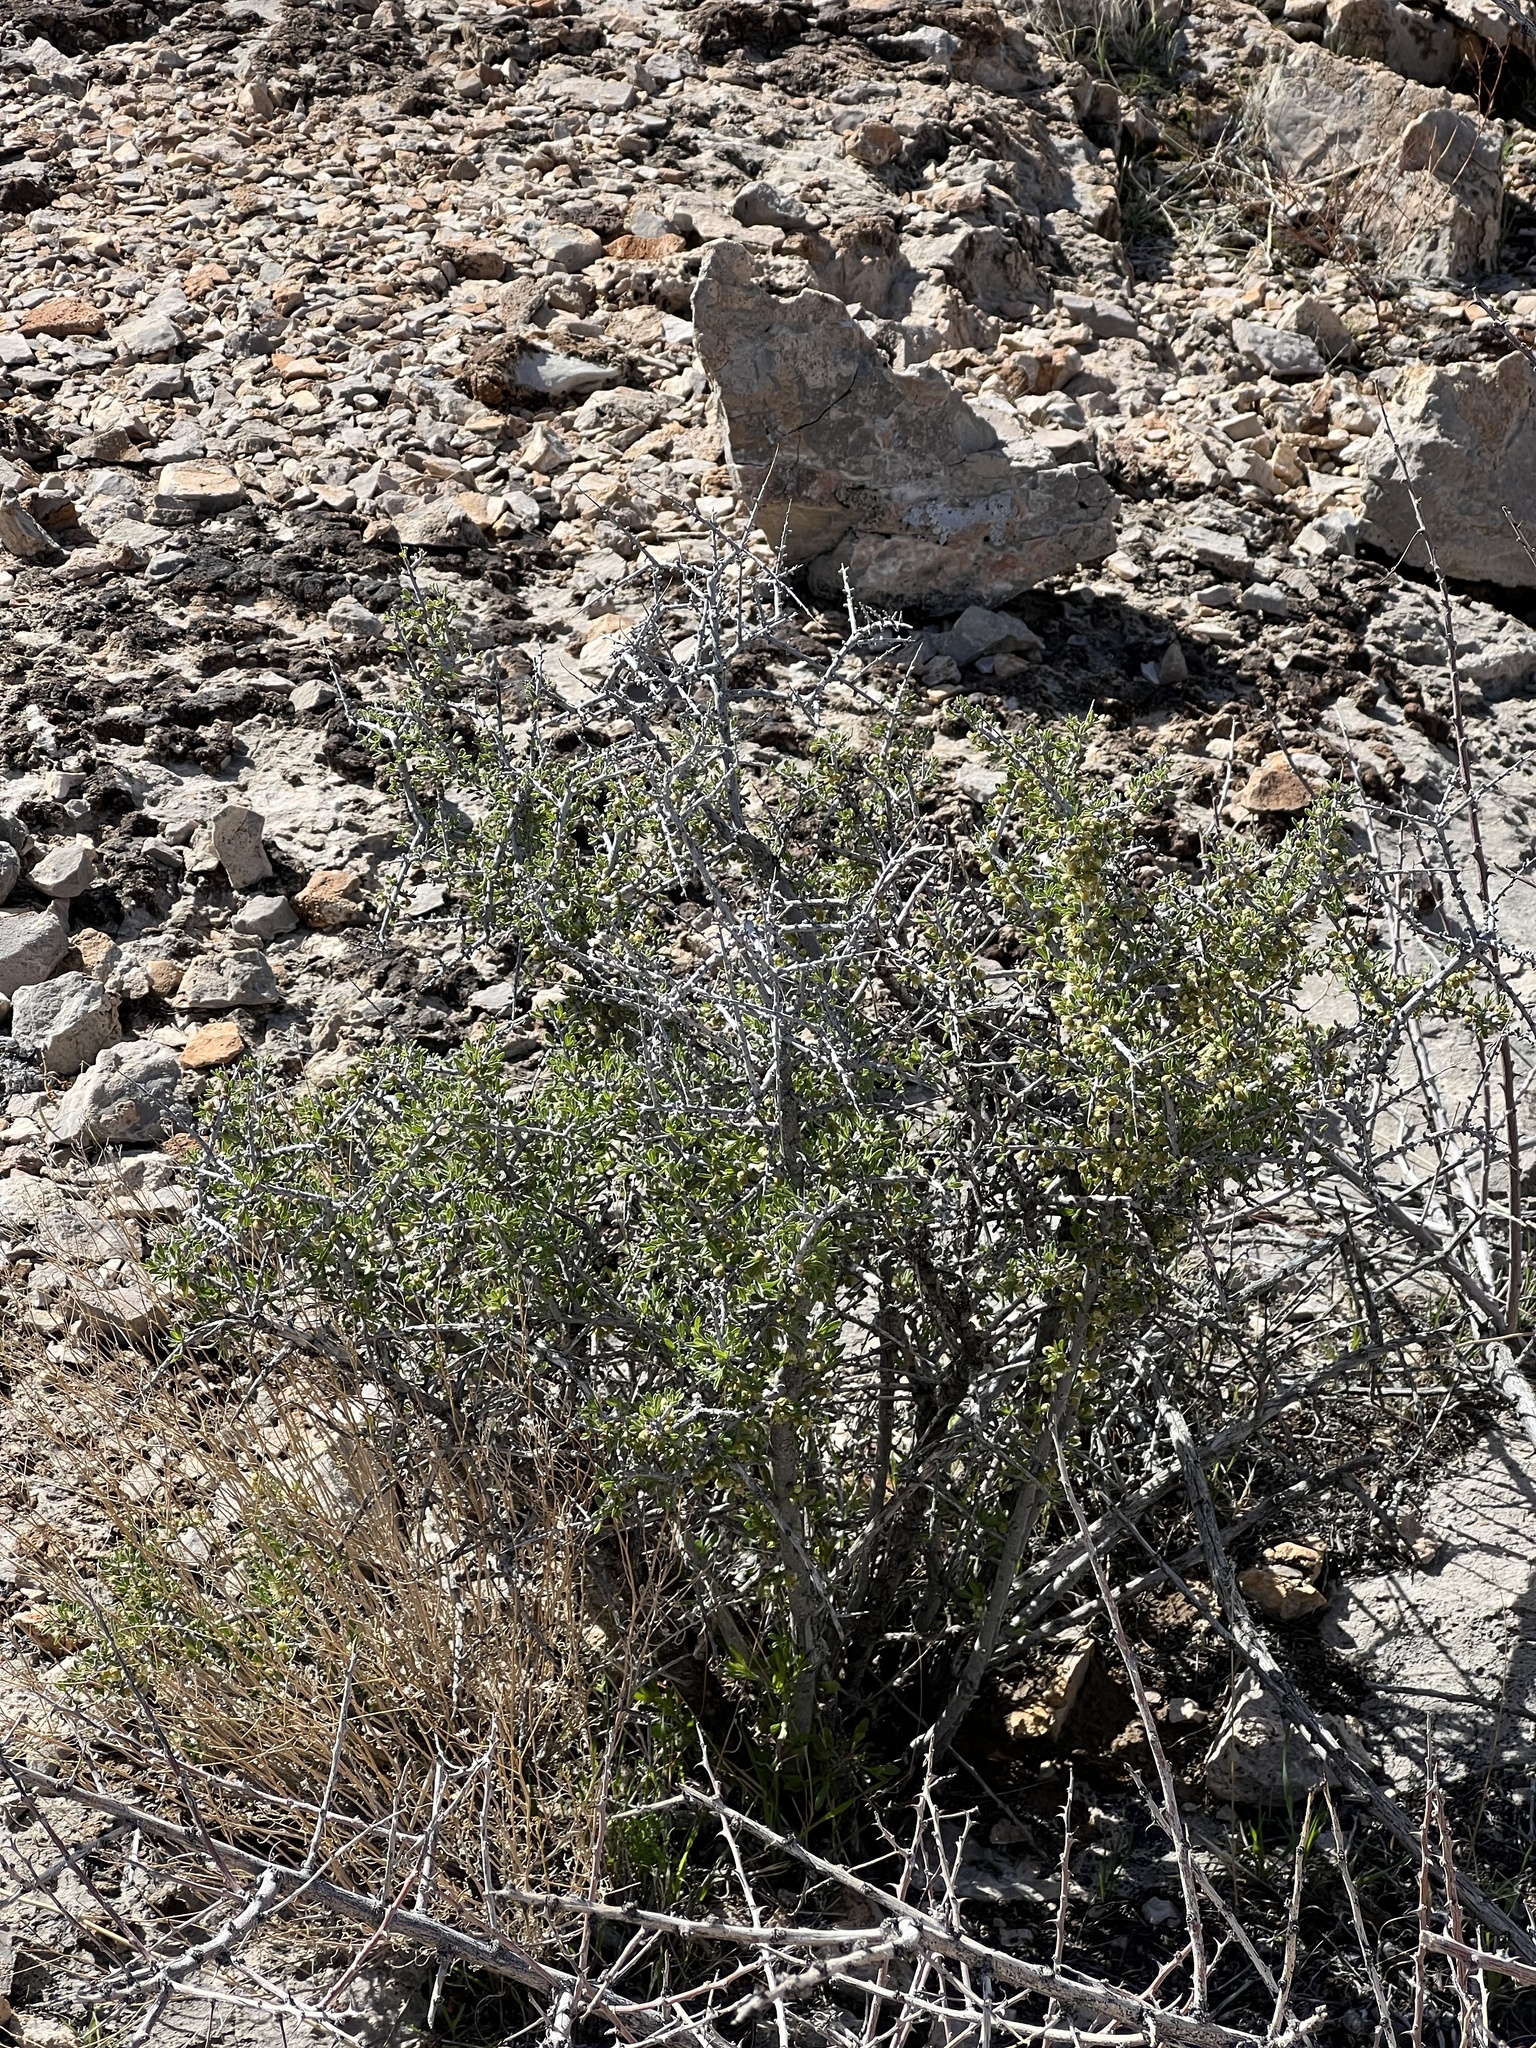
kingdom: Plantae
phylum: Tracheophyta
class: Magnoliopsida
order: Rosales
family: Rosaceae
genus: Prunus
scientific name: Prunus fasciculata
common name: Desert almond
